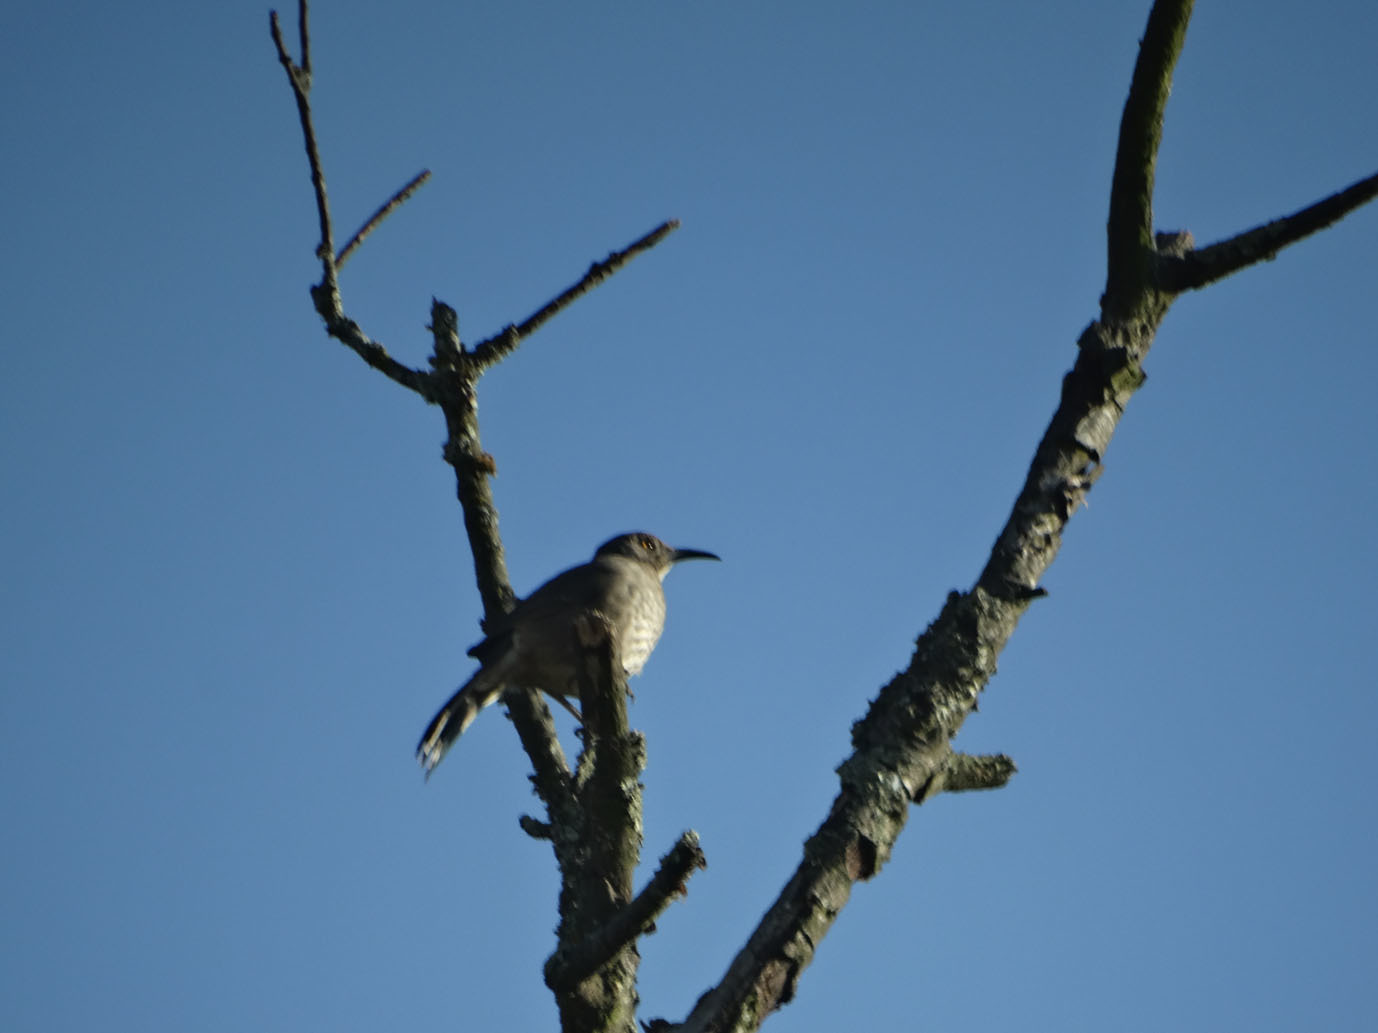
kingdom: Animalia
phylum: Chordata
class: Aves
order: Passeriformes
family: Mimidae
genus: Toxostoma
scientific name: Toxostoma curvirostre
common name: Curve-billed thrasher
